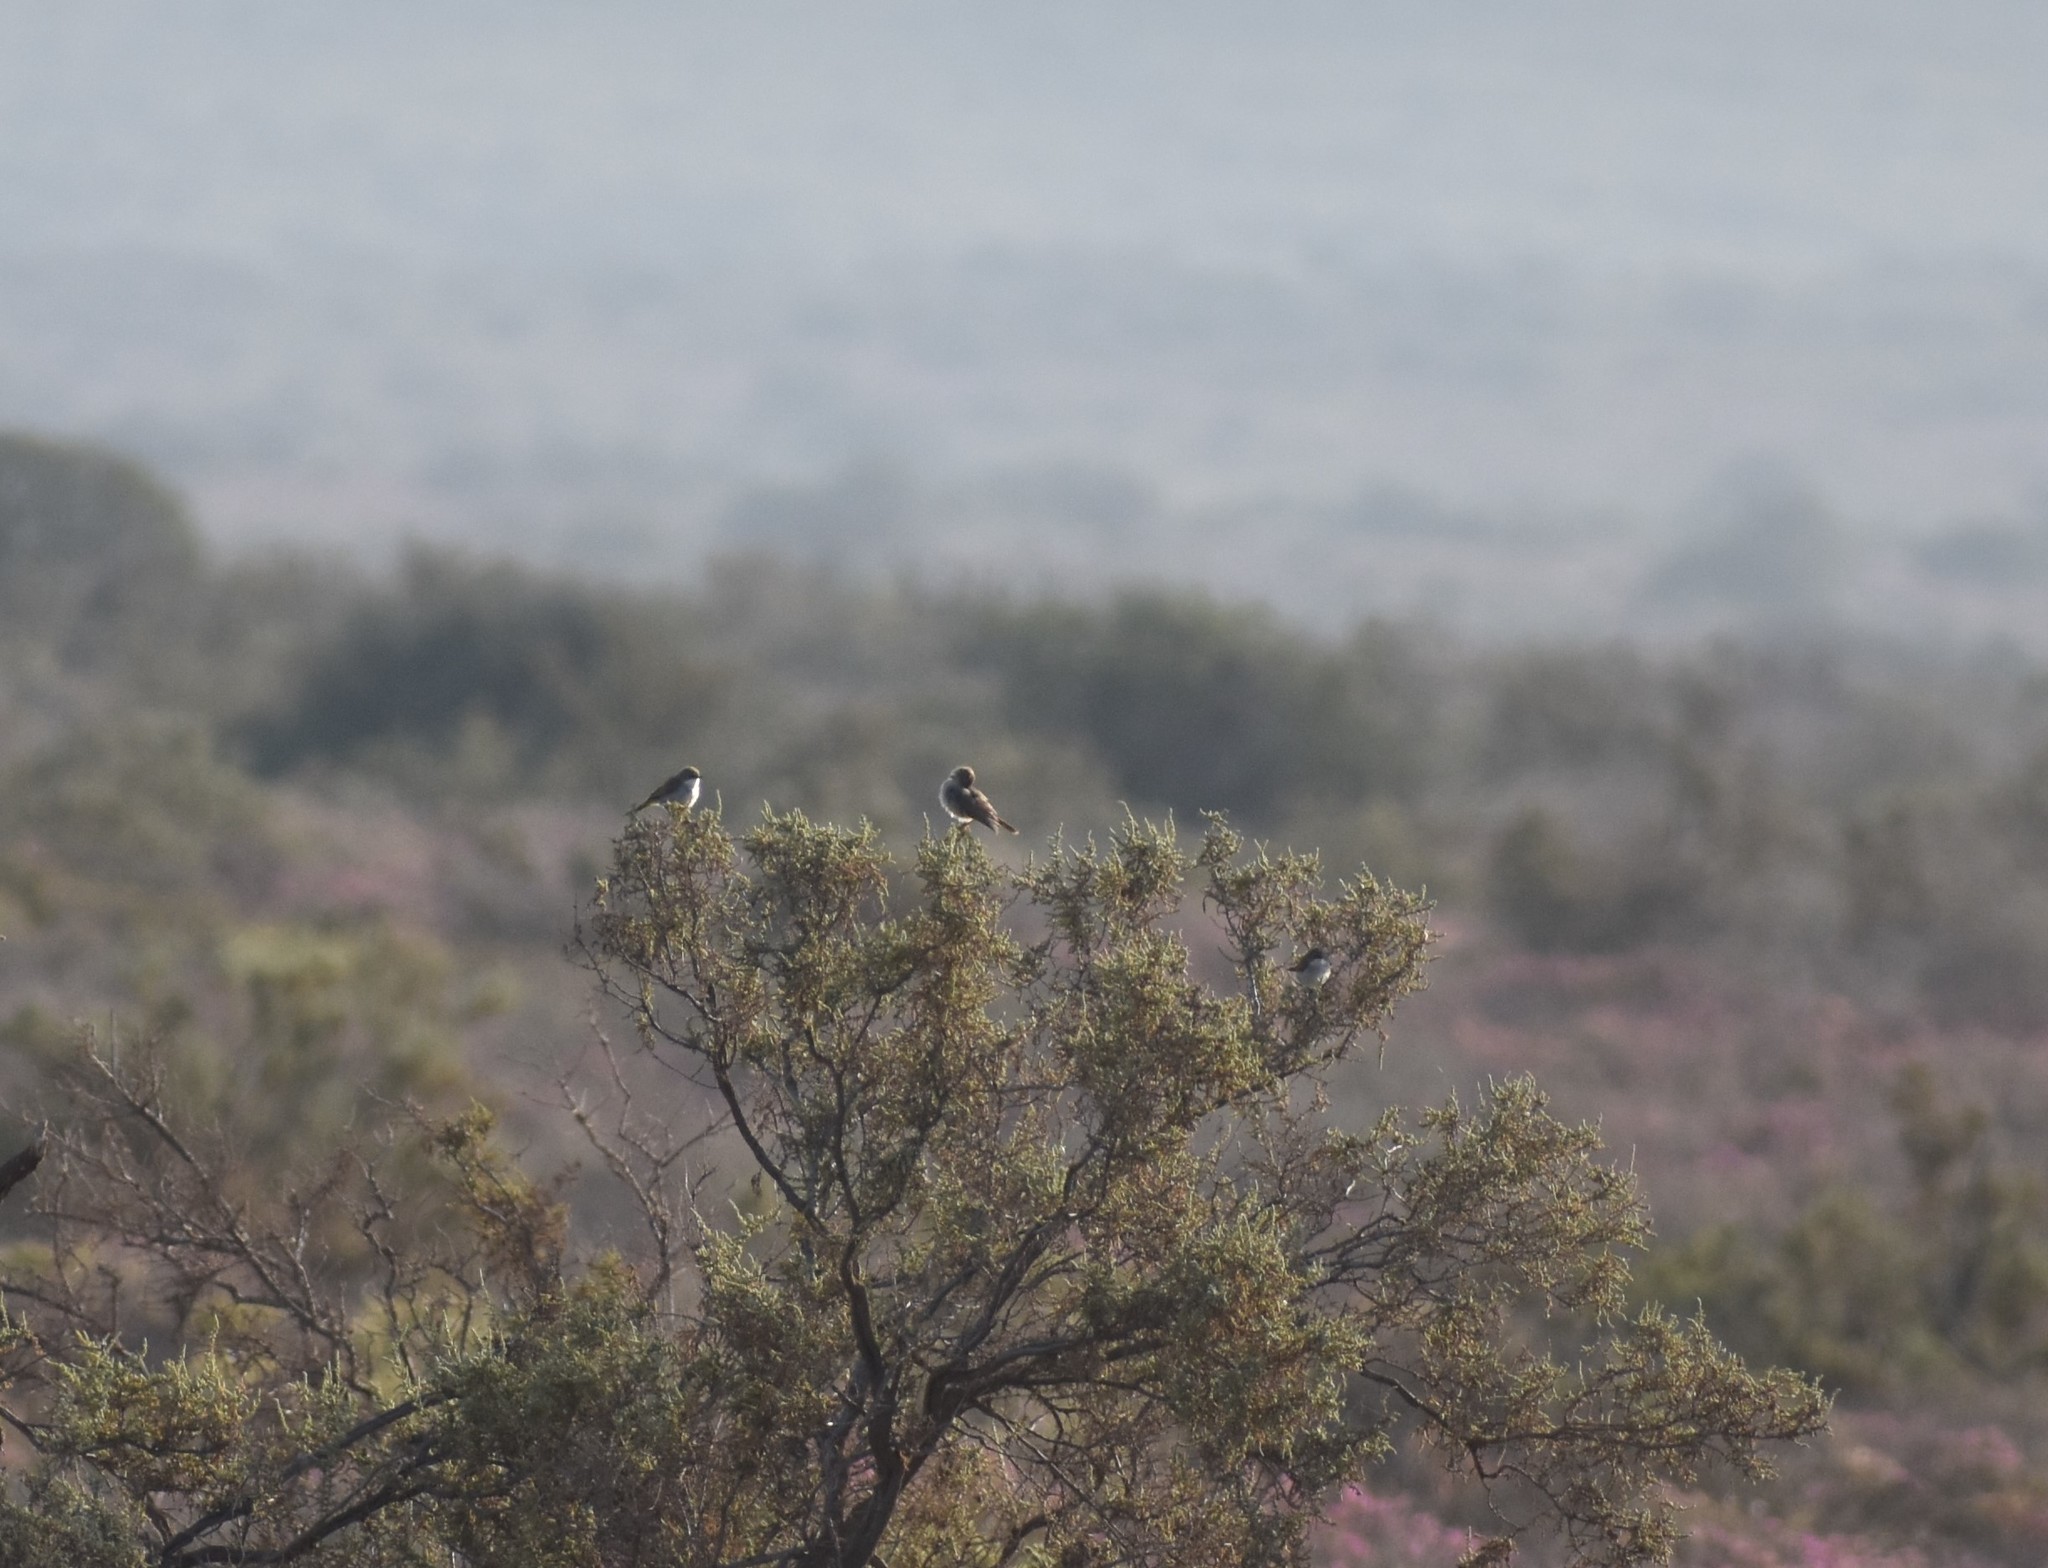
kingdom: Animalia
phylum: Chordata
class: Aves
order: Passeriformes
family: Cisticolidae
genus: Eremomela
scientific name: Eremomela gregalis
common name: Karoo eremomela
